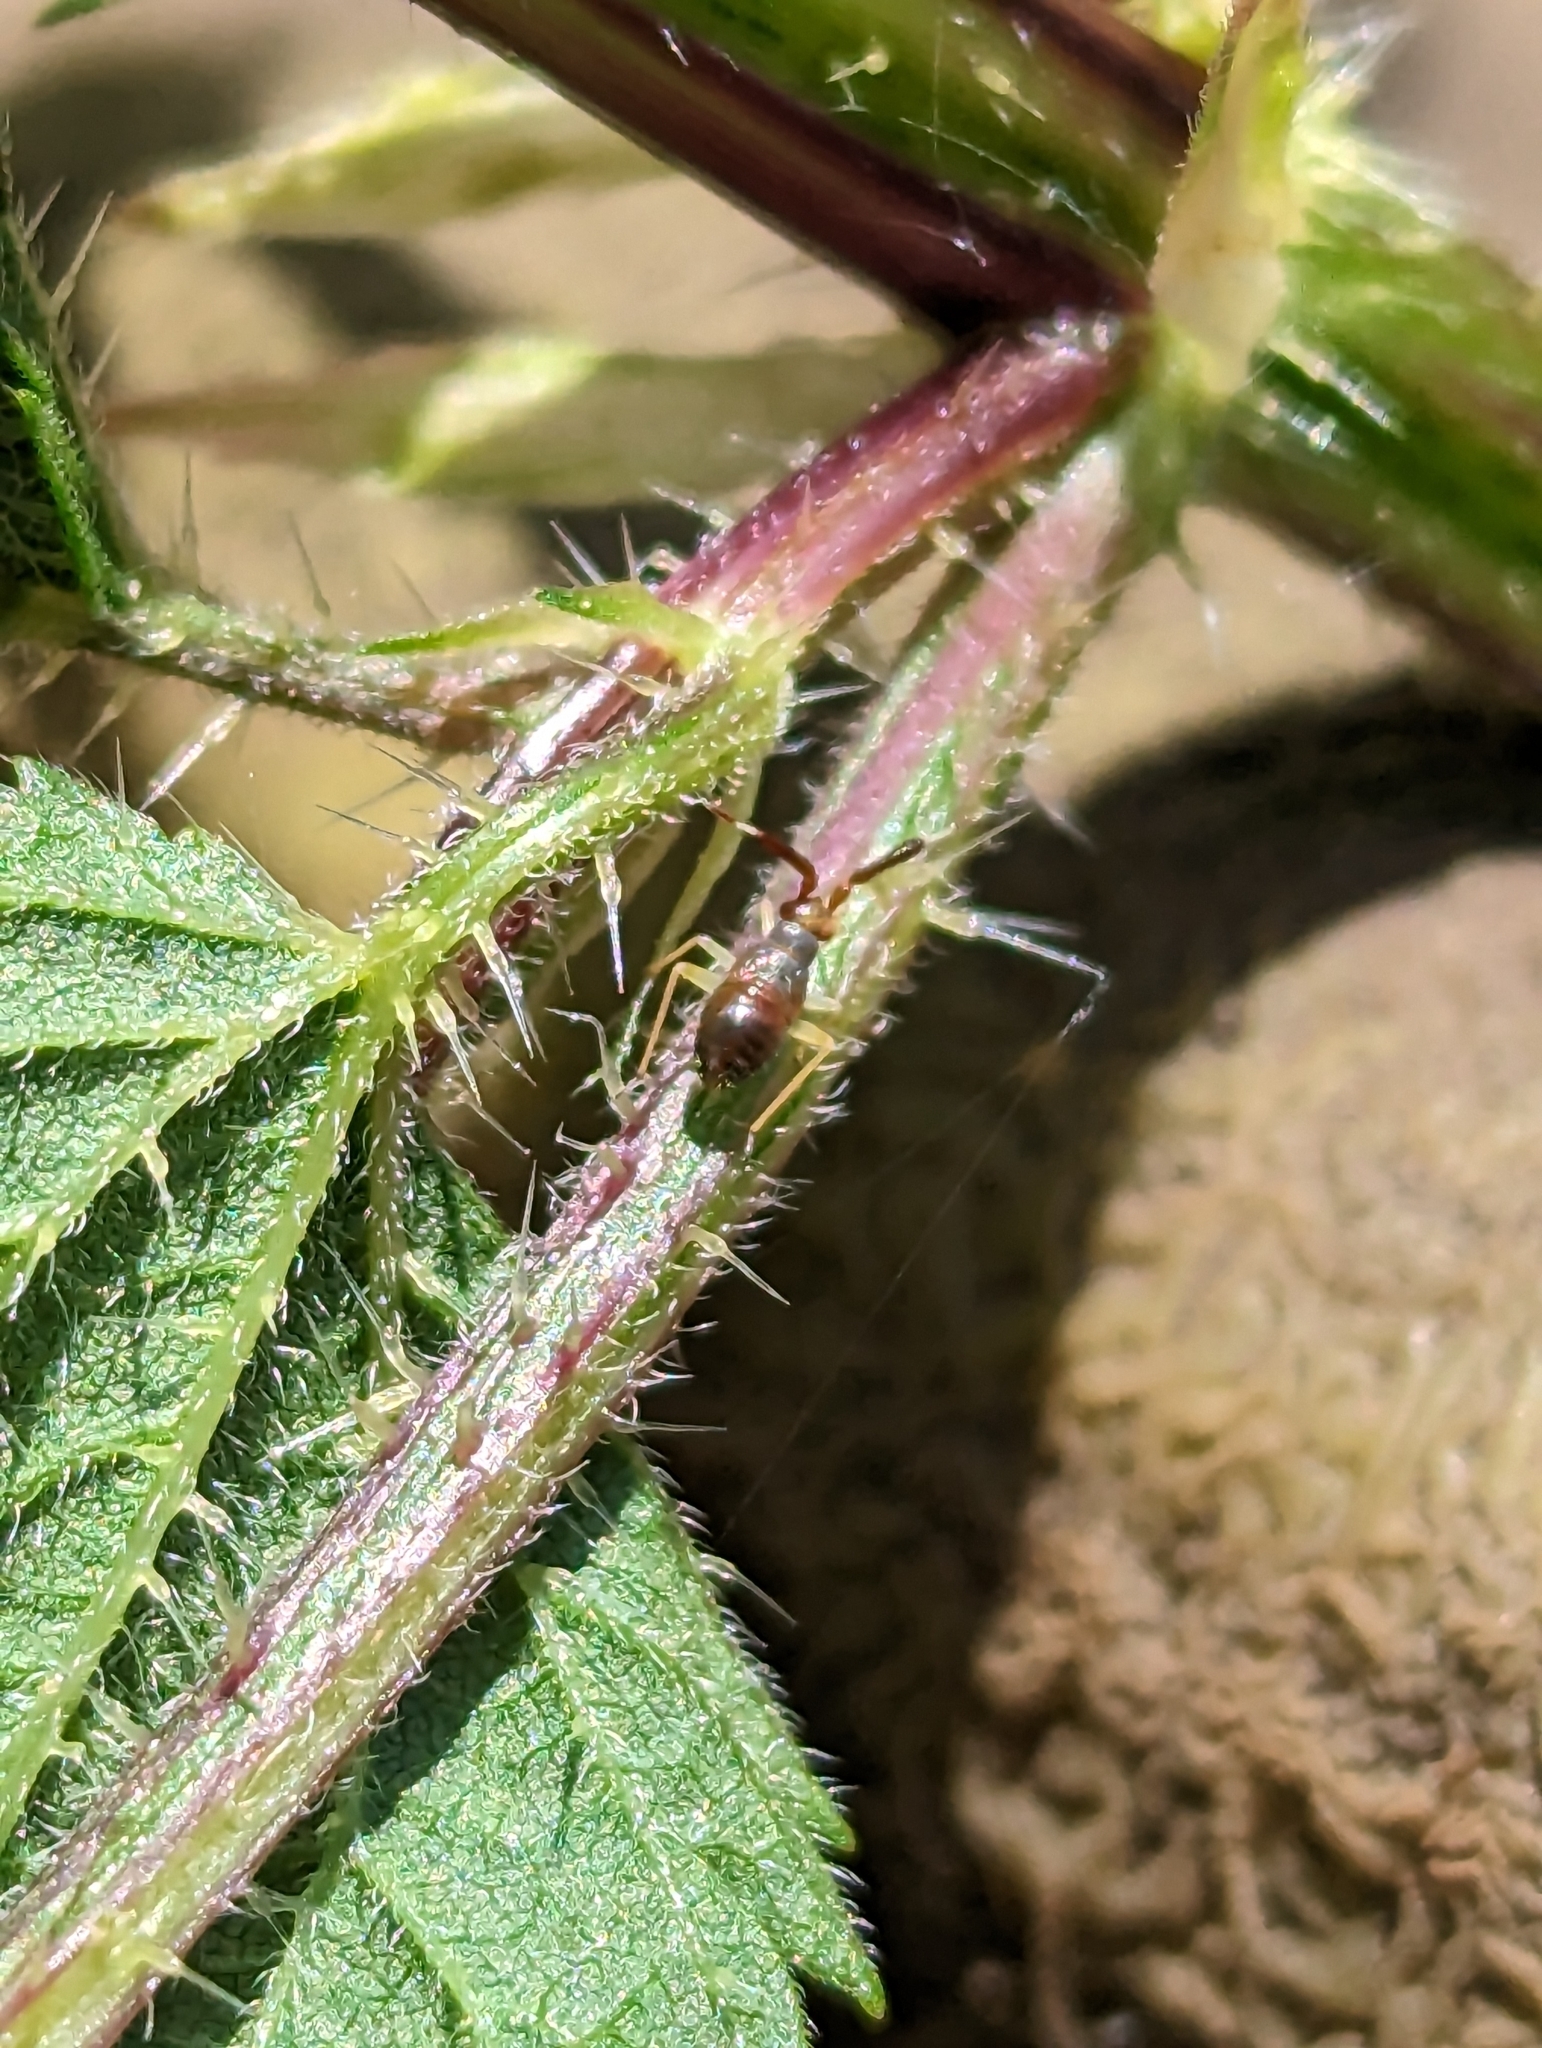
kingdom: Animalia
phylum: Arthropoda
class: Insecta
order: Hemiptera
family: Miridae
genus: Heterotoma
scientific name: Heterotoma planicornis
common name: Plant bug
